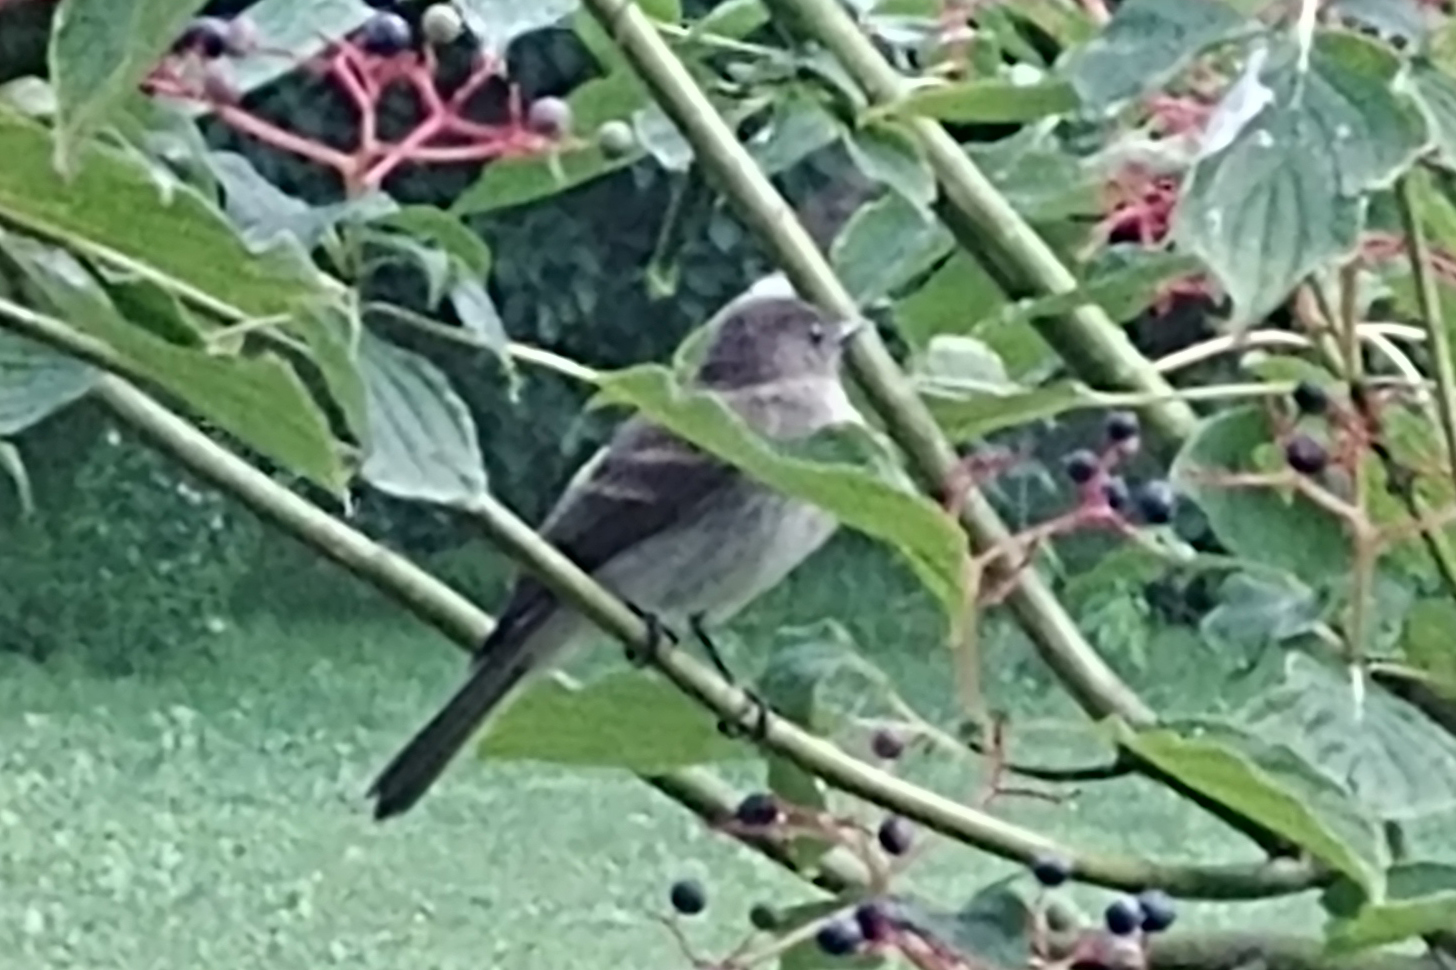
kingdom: Animalia
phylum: Chordata
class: Aves
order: Passeriformes
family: Tyrannidae
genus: Sayornis
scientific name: Sayornis phoebe
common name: Eastern phoebe
